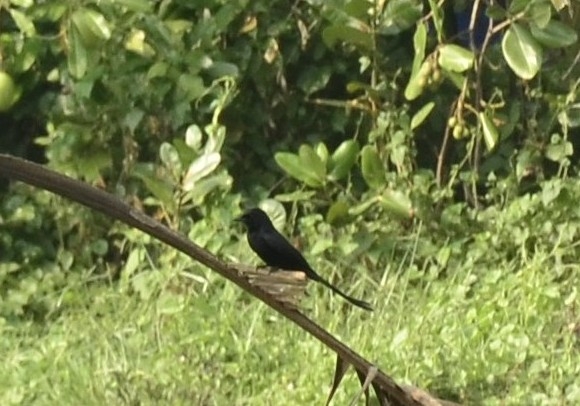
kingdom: Animalia
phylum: Chordata
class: Aves
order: Passeriformes
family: Dicruridae
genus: Dicrurus
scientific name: Dicrurus macrocercus
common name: Black drongo
